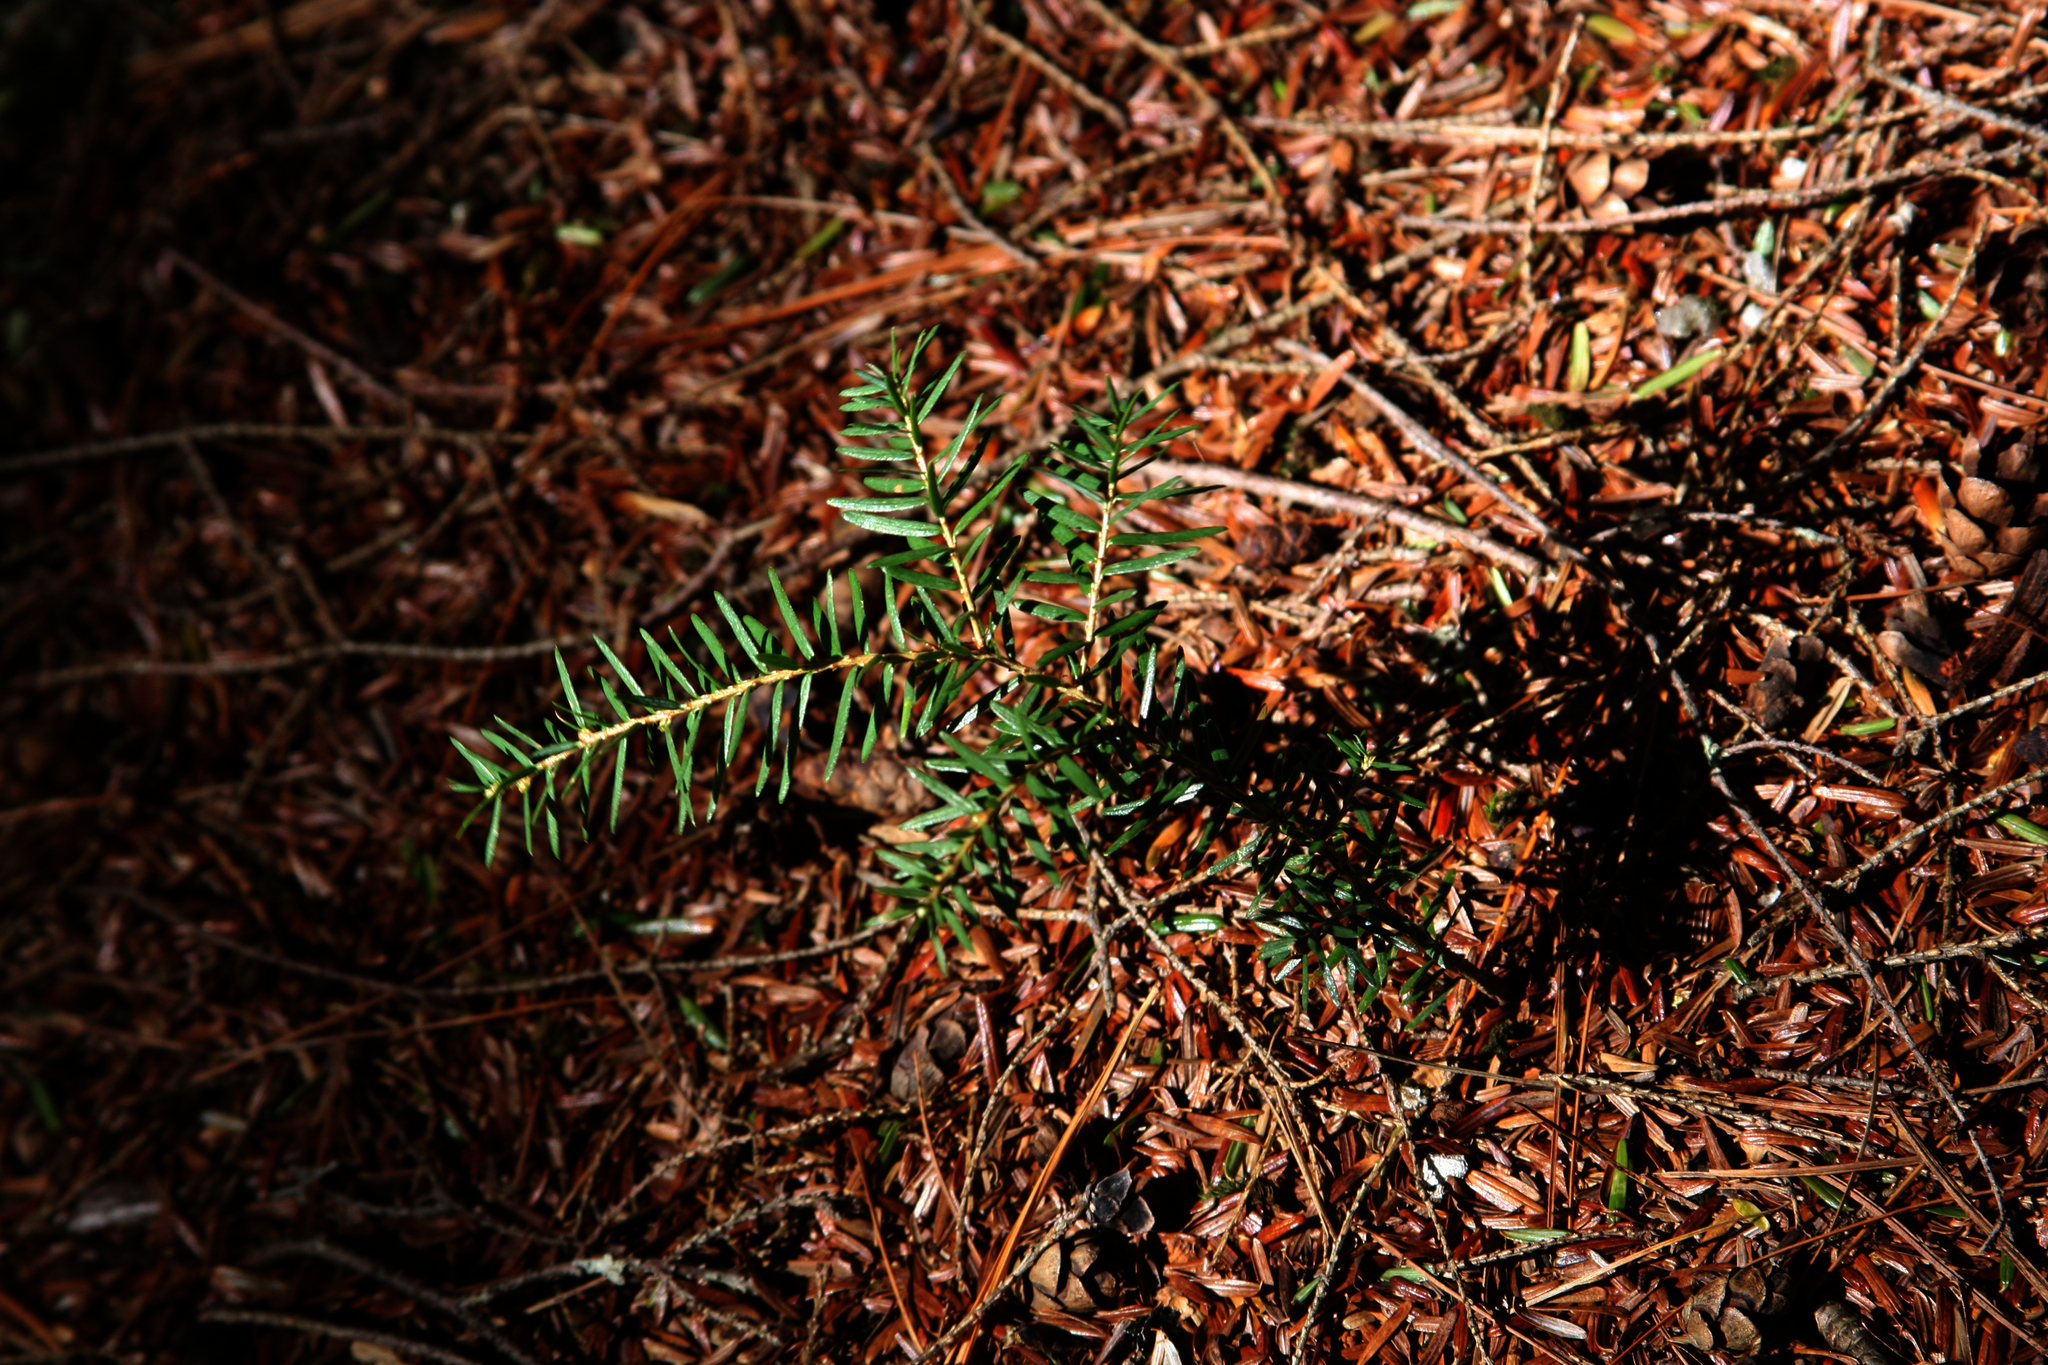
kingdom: Plantae
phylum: Tracheophyta
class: Pinopsida
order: Pinales
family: Pinaceae
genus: Tsuga
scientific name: Tsuga canadensis
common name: Eastern hemlock
